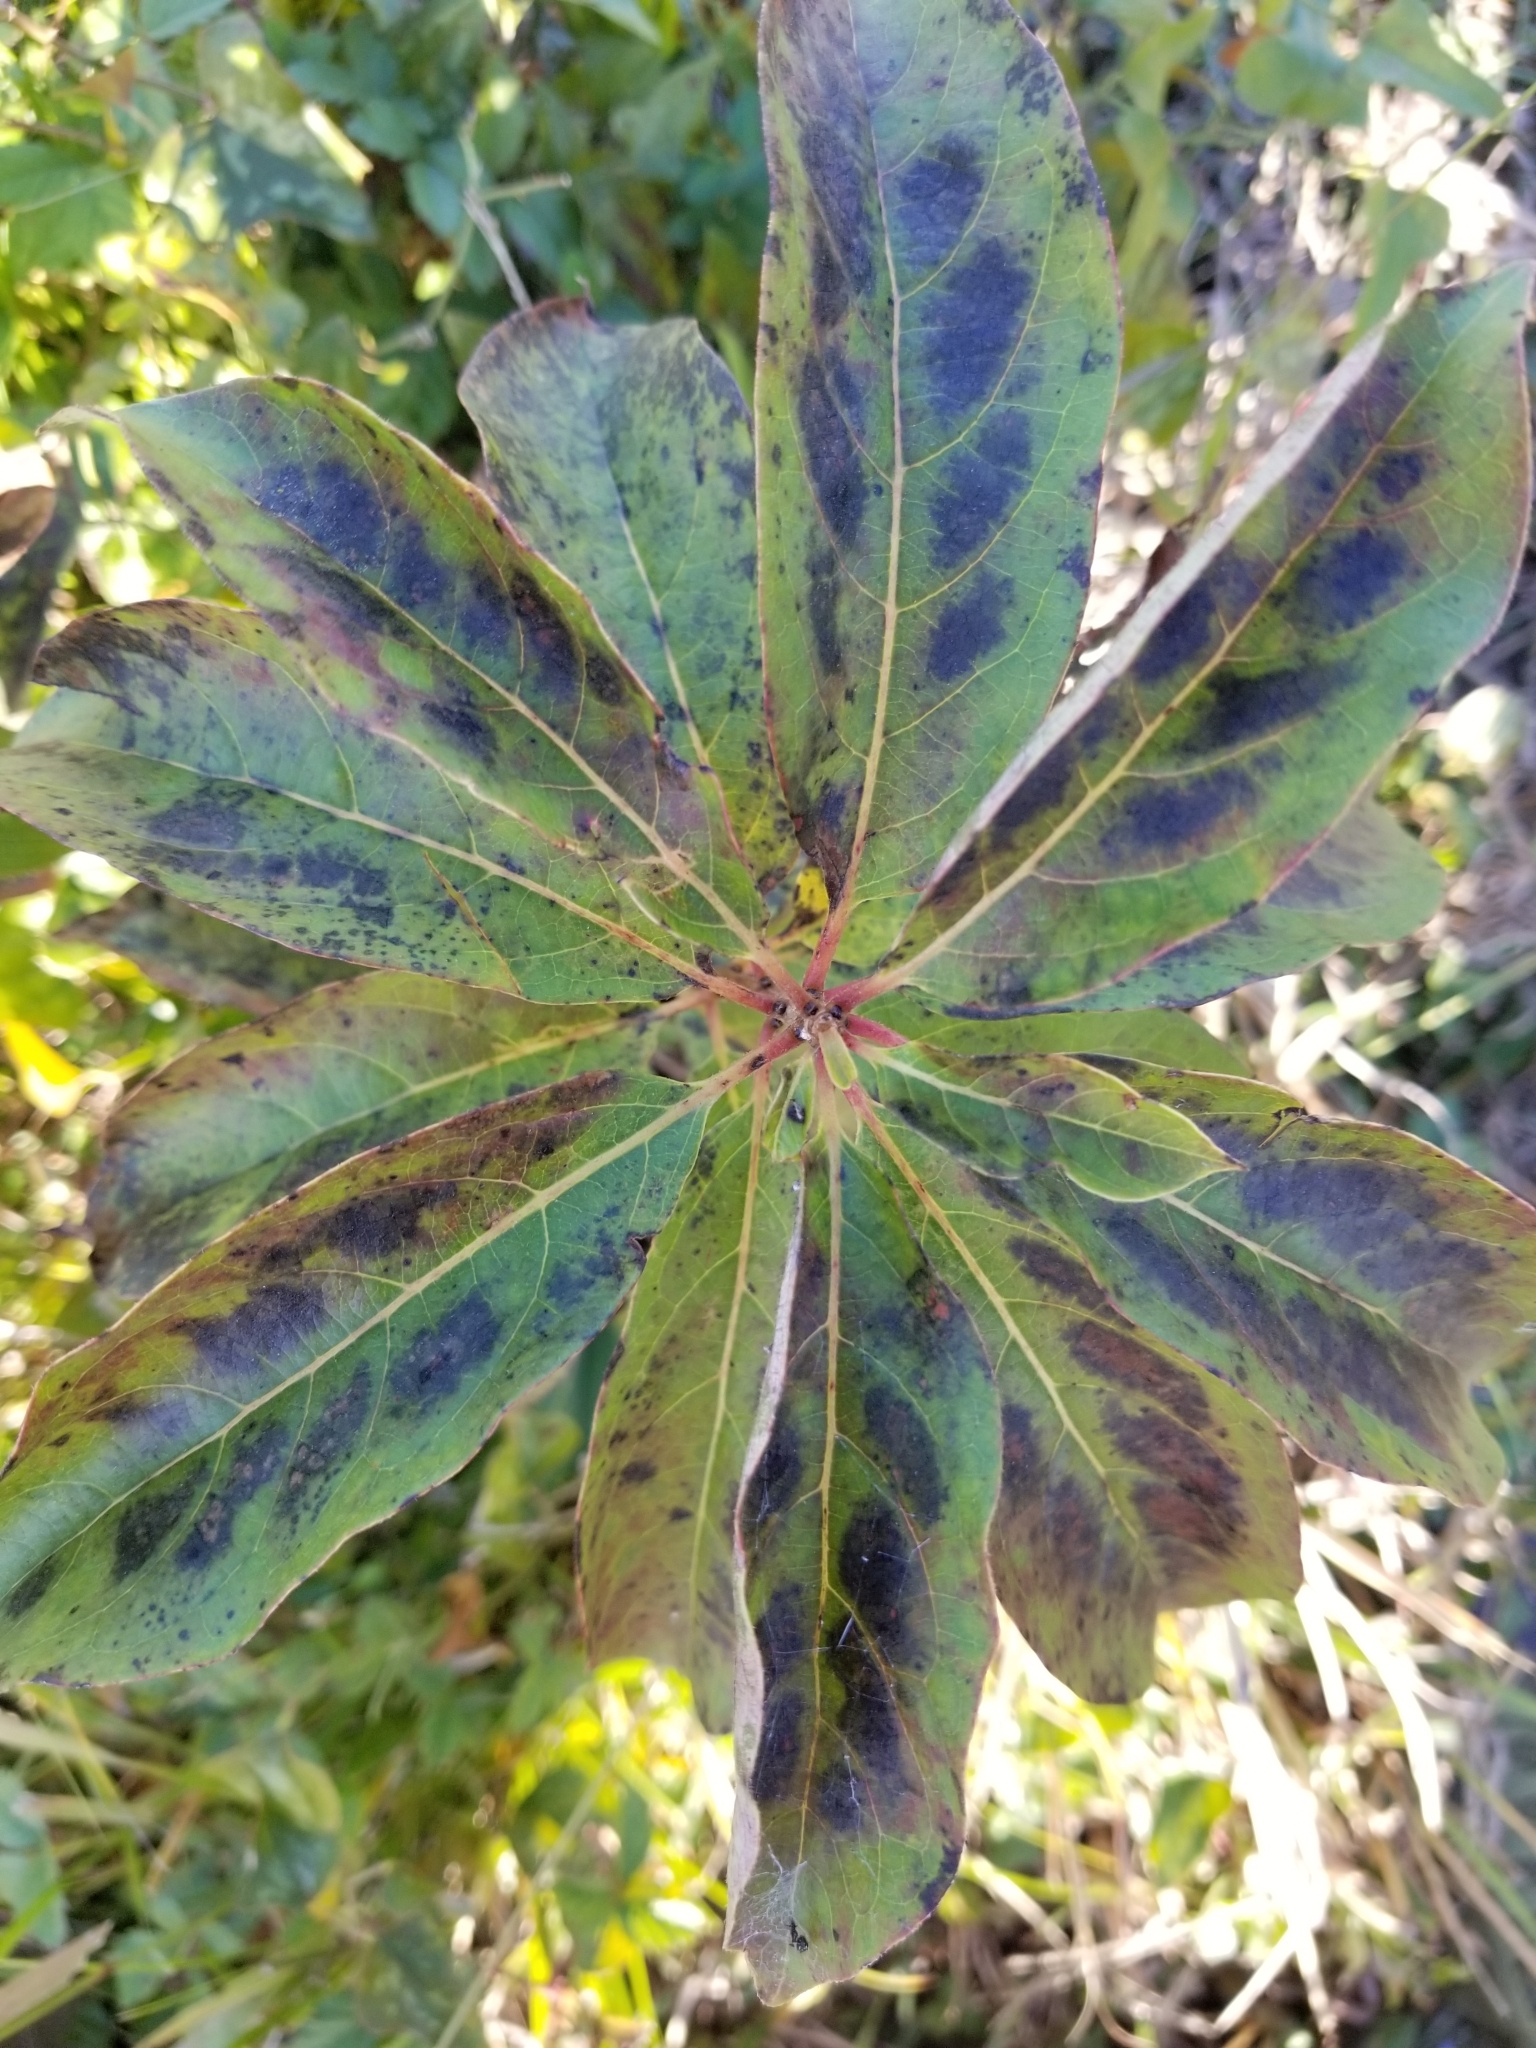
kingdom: Plantae
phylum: Tracheophyta
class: Magnoliopsida
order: Ericales
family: Ebenaceae
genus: Diospyros
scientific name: Diospyros virginiana
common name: Persimmon
